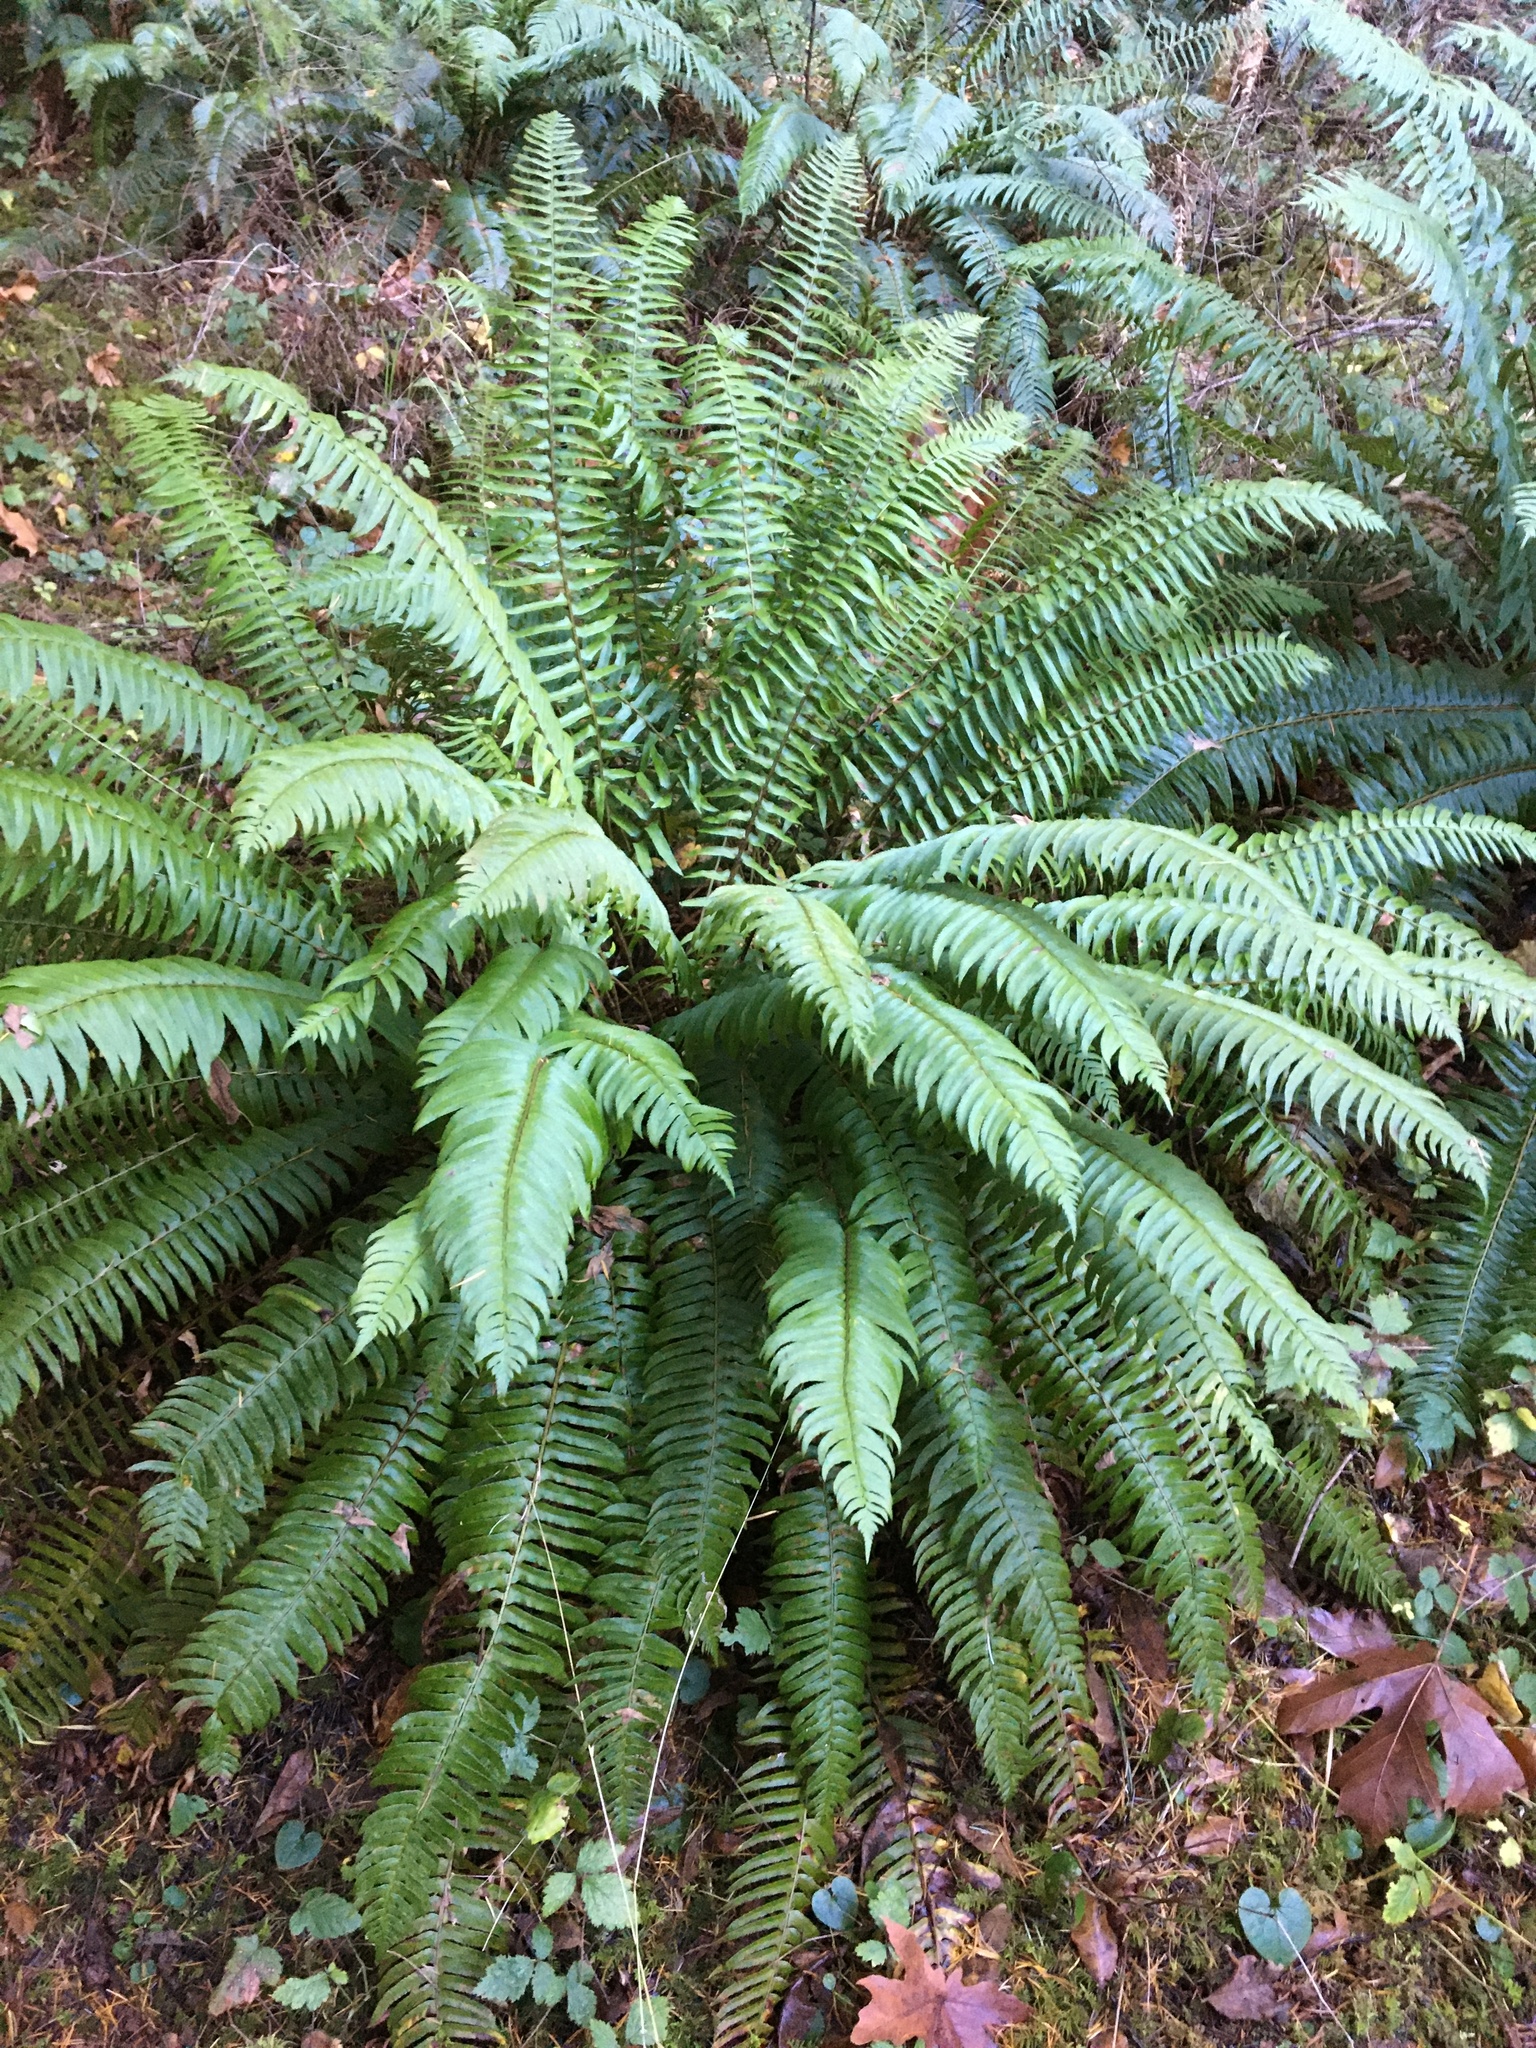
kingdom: Plantae
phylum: Tracheophyta
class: Polypodiopsida
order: Polypodiales
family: Dryopteridaceae
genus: Polystichum
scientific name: Polystichum munitum
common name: Western sword-fern
